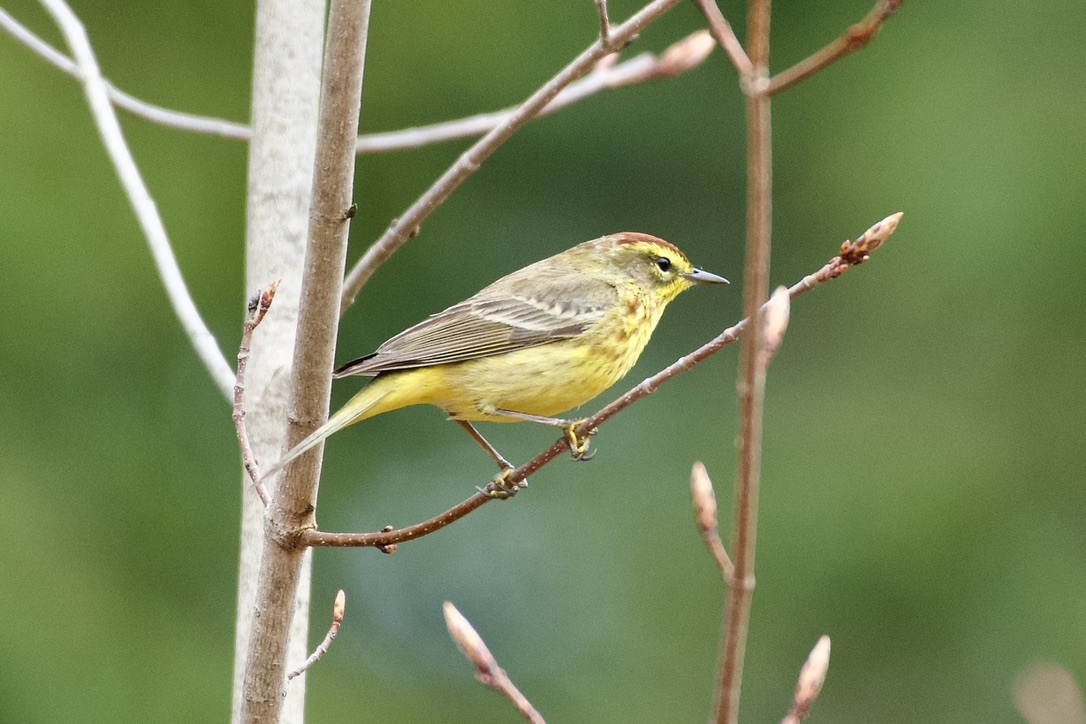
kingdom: Animalia
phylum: Chordata
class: Aves
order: Passeriformes
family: Parulidae
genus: Setophaga
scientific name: Setophaga palmarum
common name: Palm warbler
